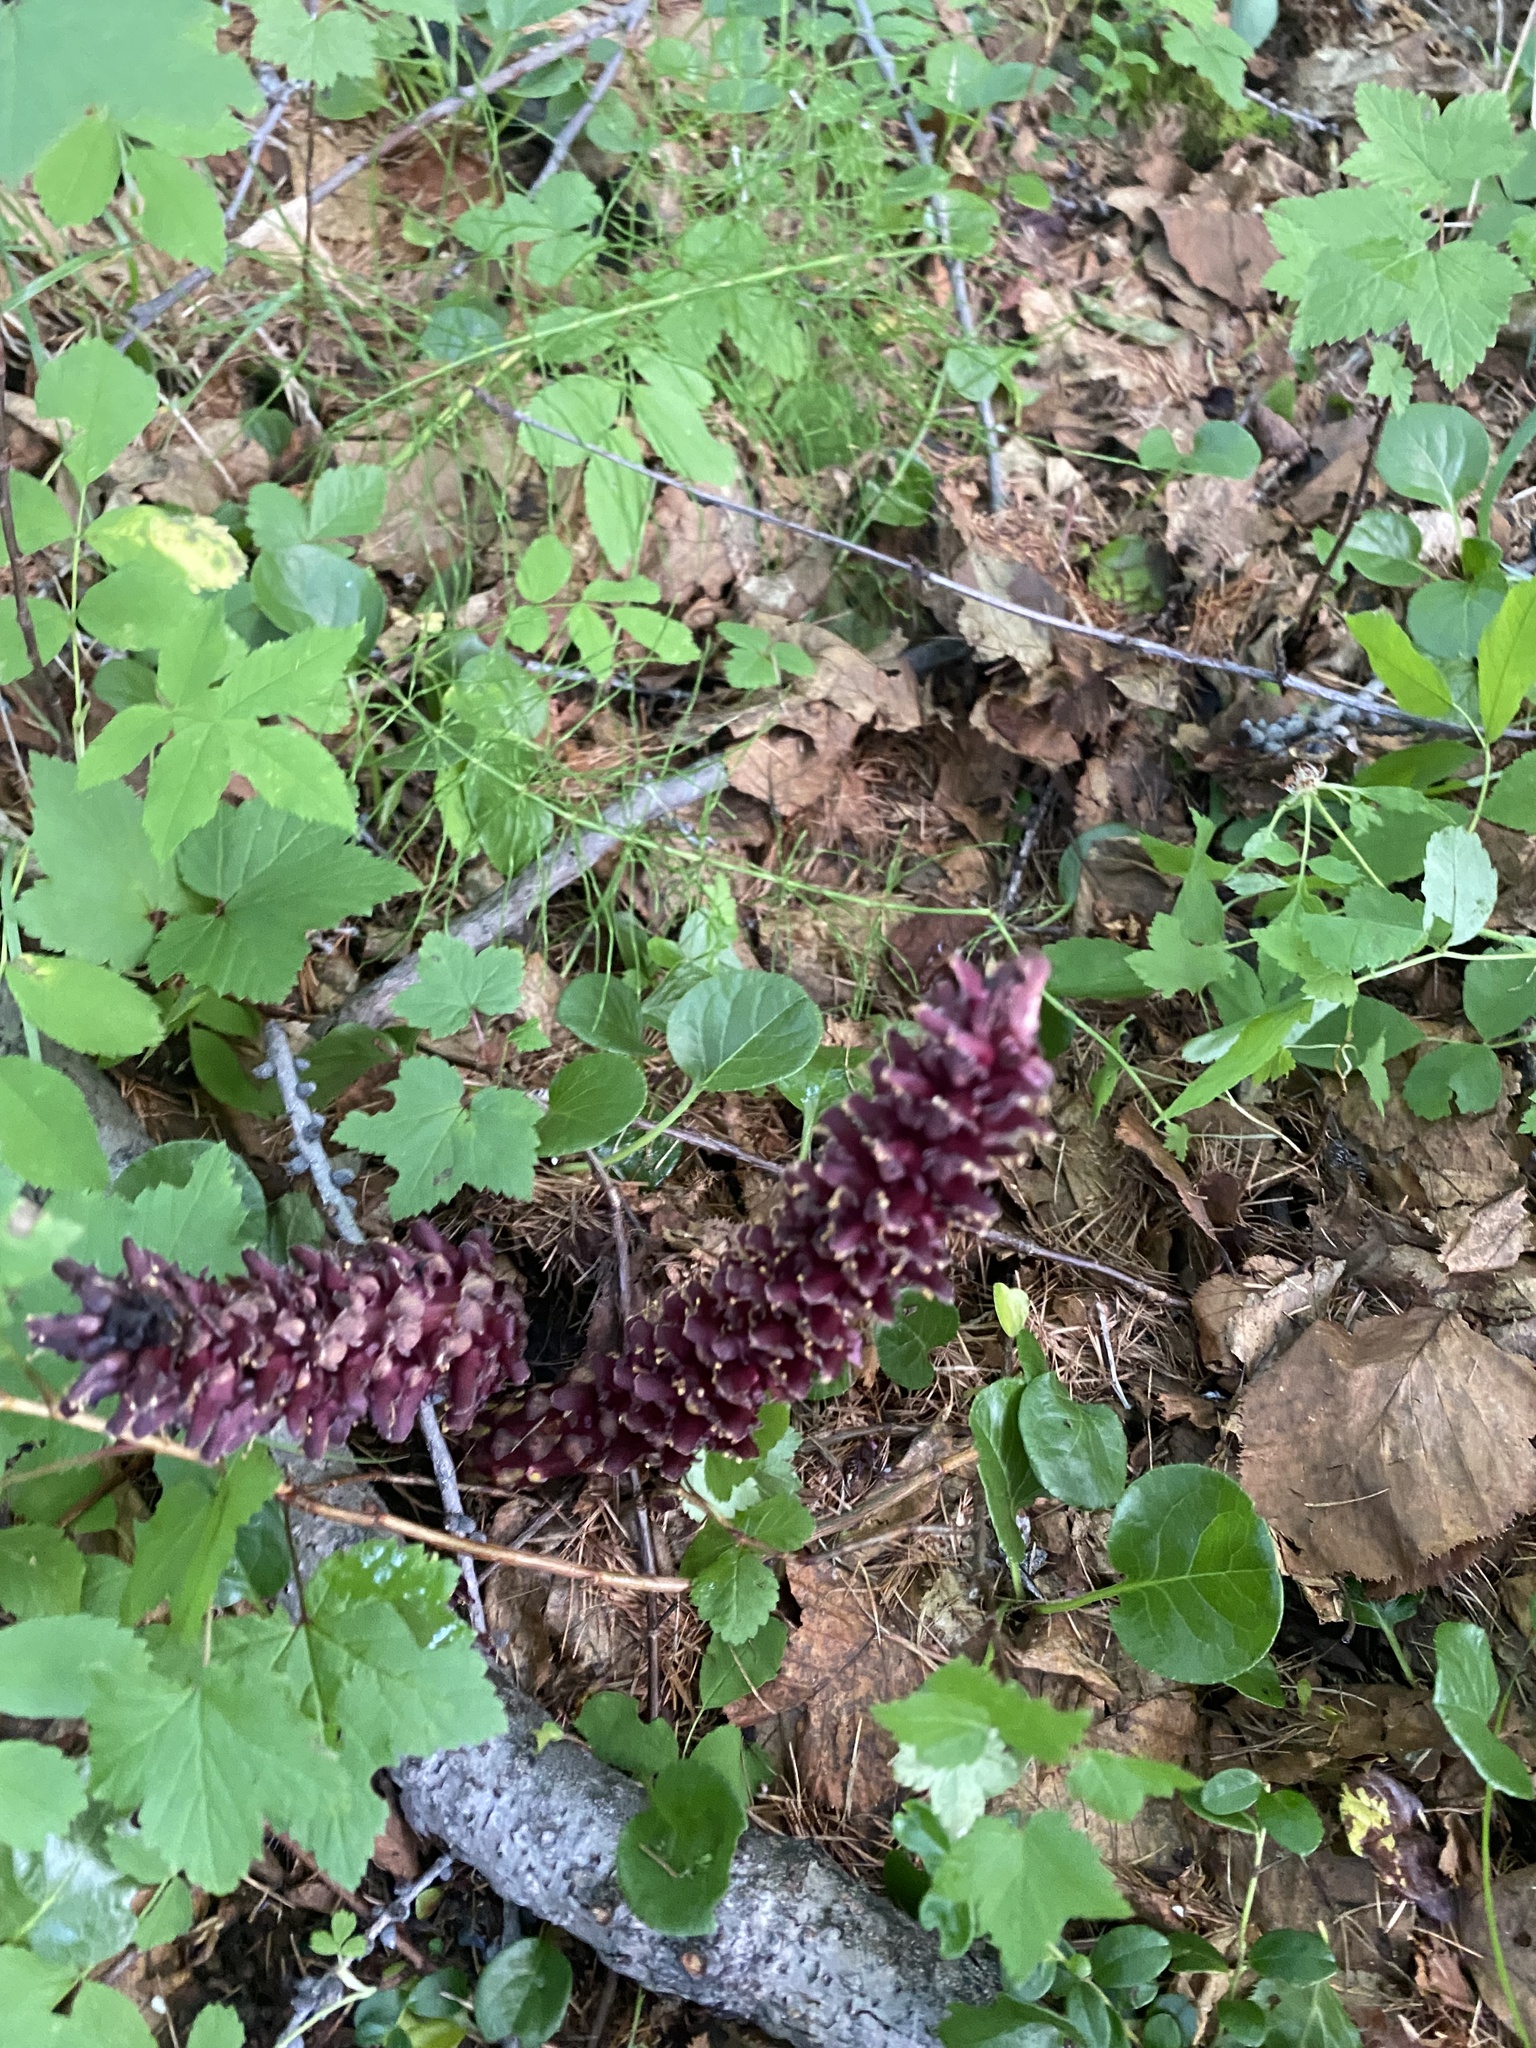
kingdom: Plantae
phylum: Tracheophyta
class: Magnoliopsida
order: Lamiales
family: Orobanchaceae
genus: Boschniakia
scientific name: Boschniakia rossica
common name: Poque
